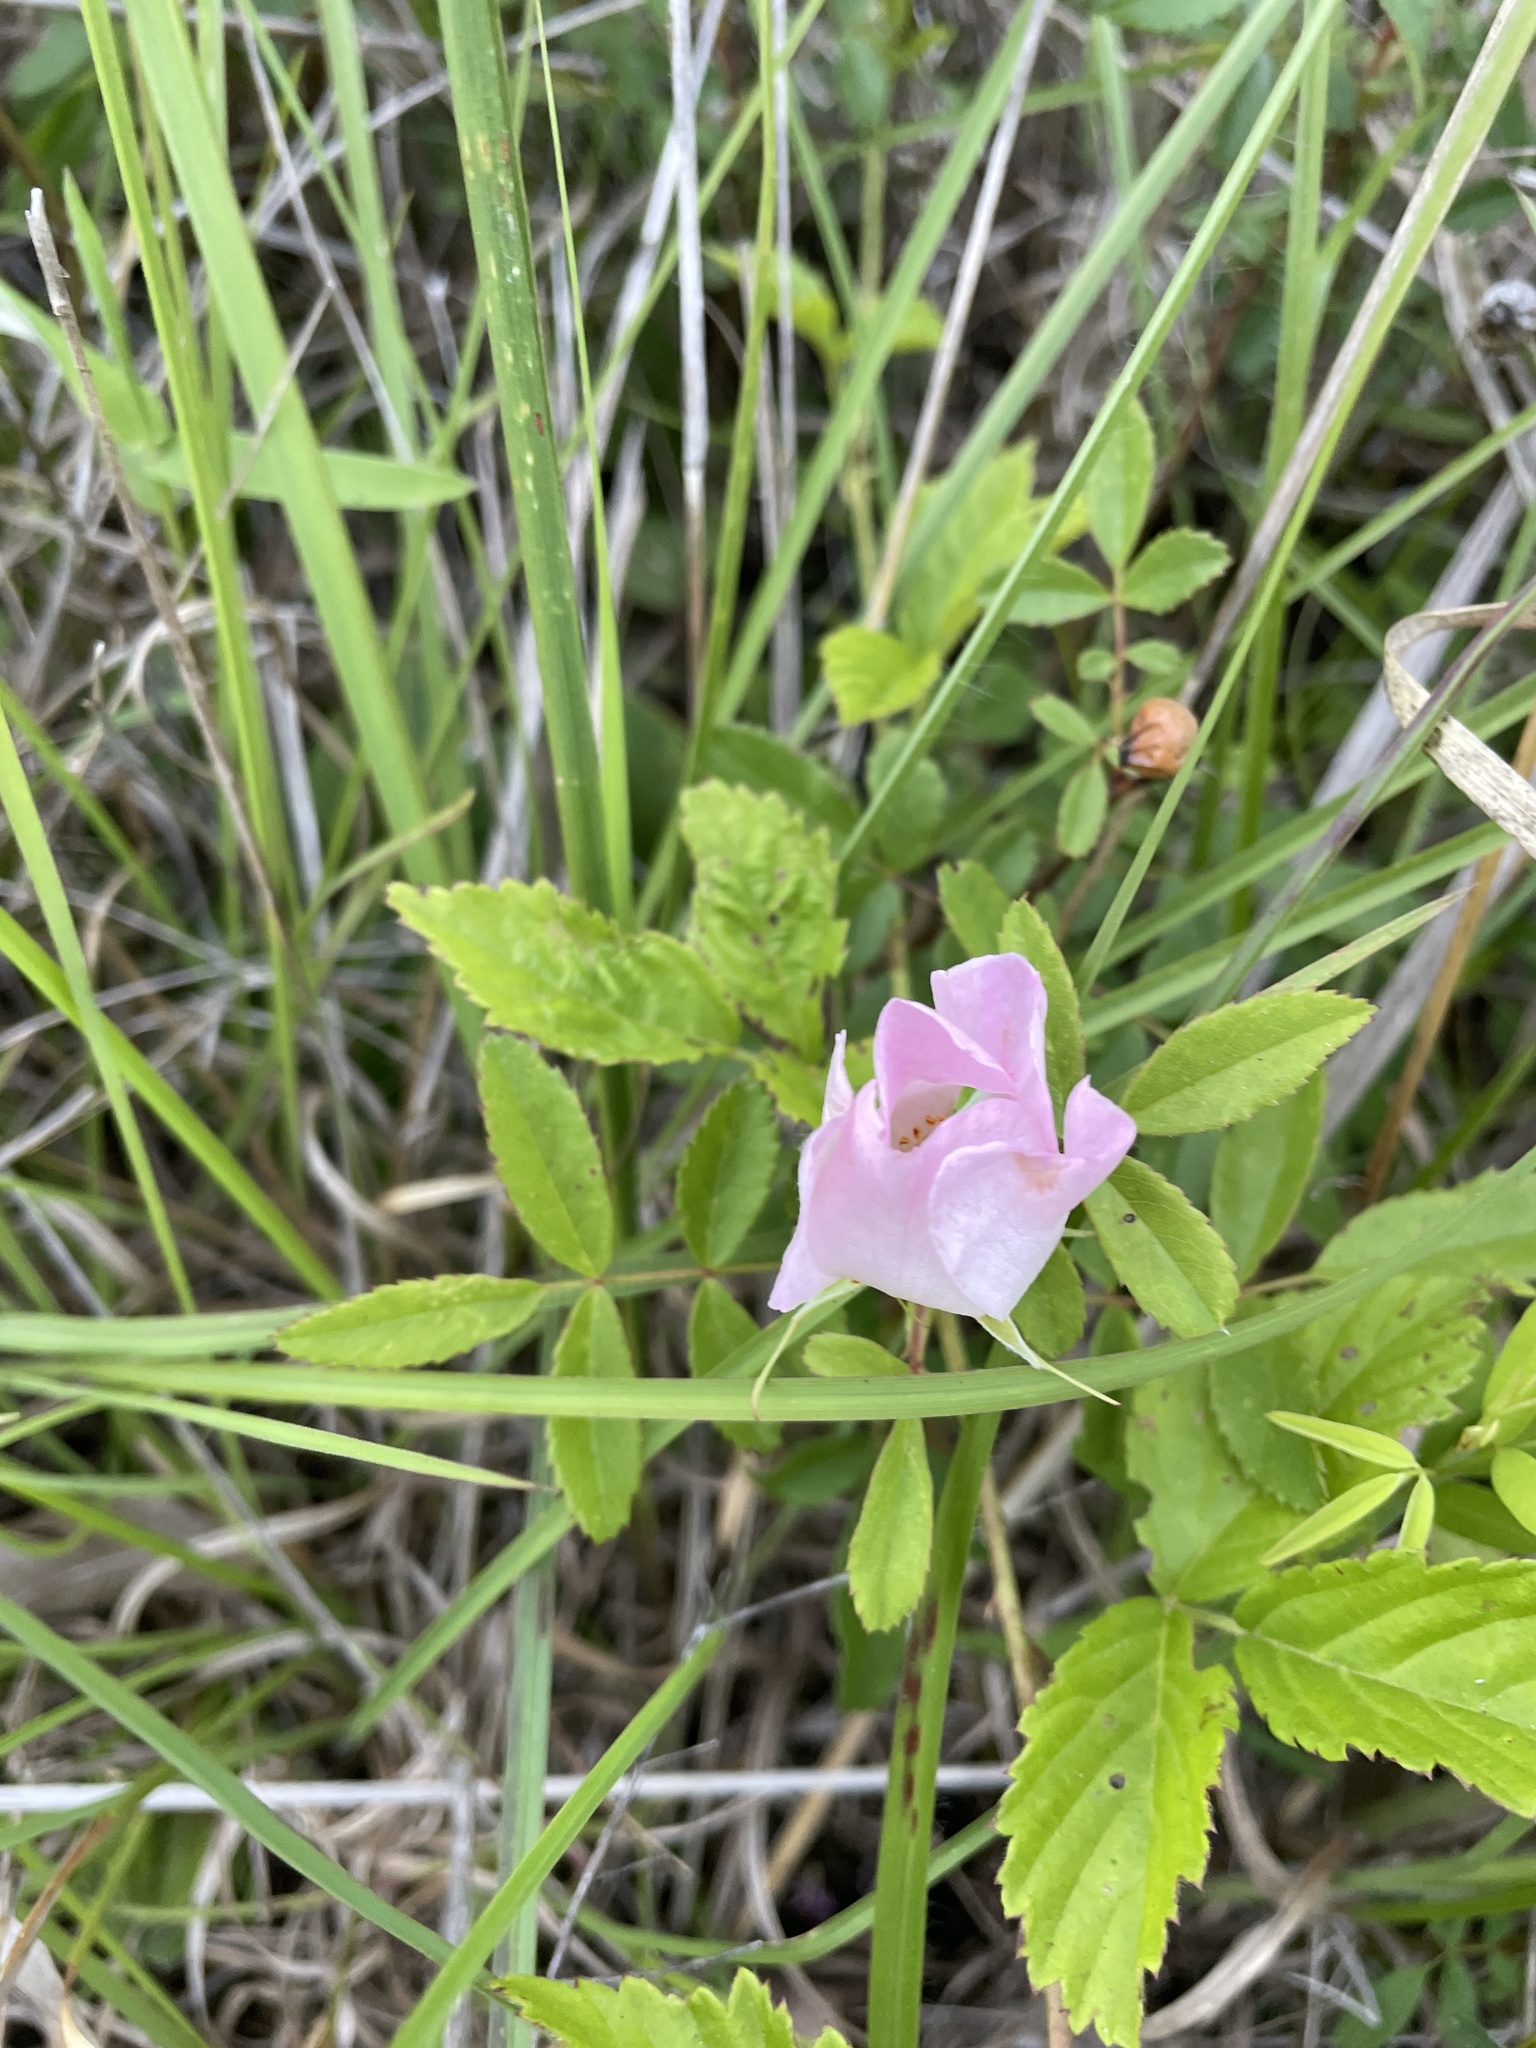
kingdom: Plantae
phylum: Tracheophyta
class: Magnoliopsida
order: Rosales
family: Rosaceae
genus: Rosa
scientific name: Rosa carolina
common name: Pasture rose
